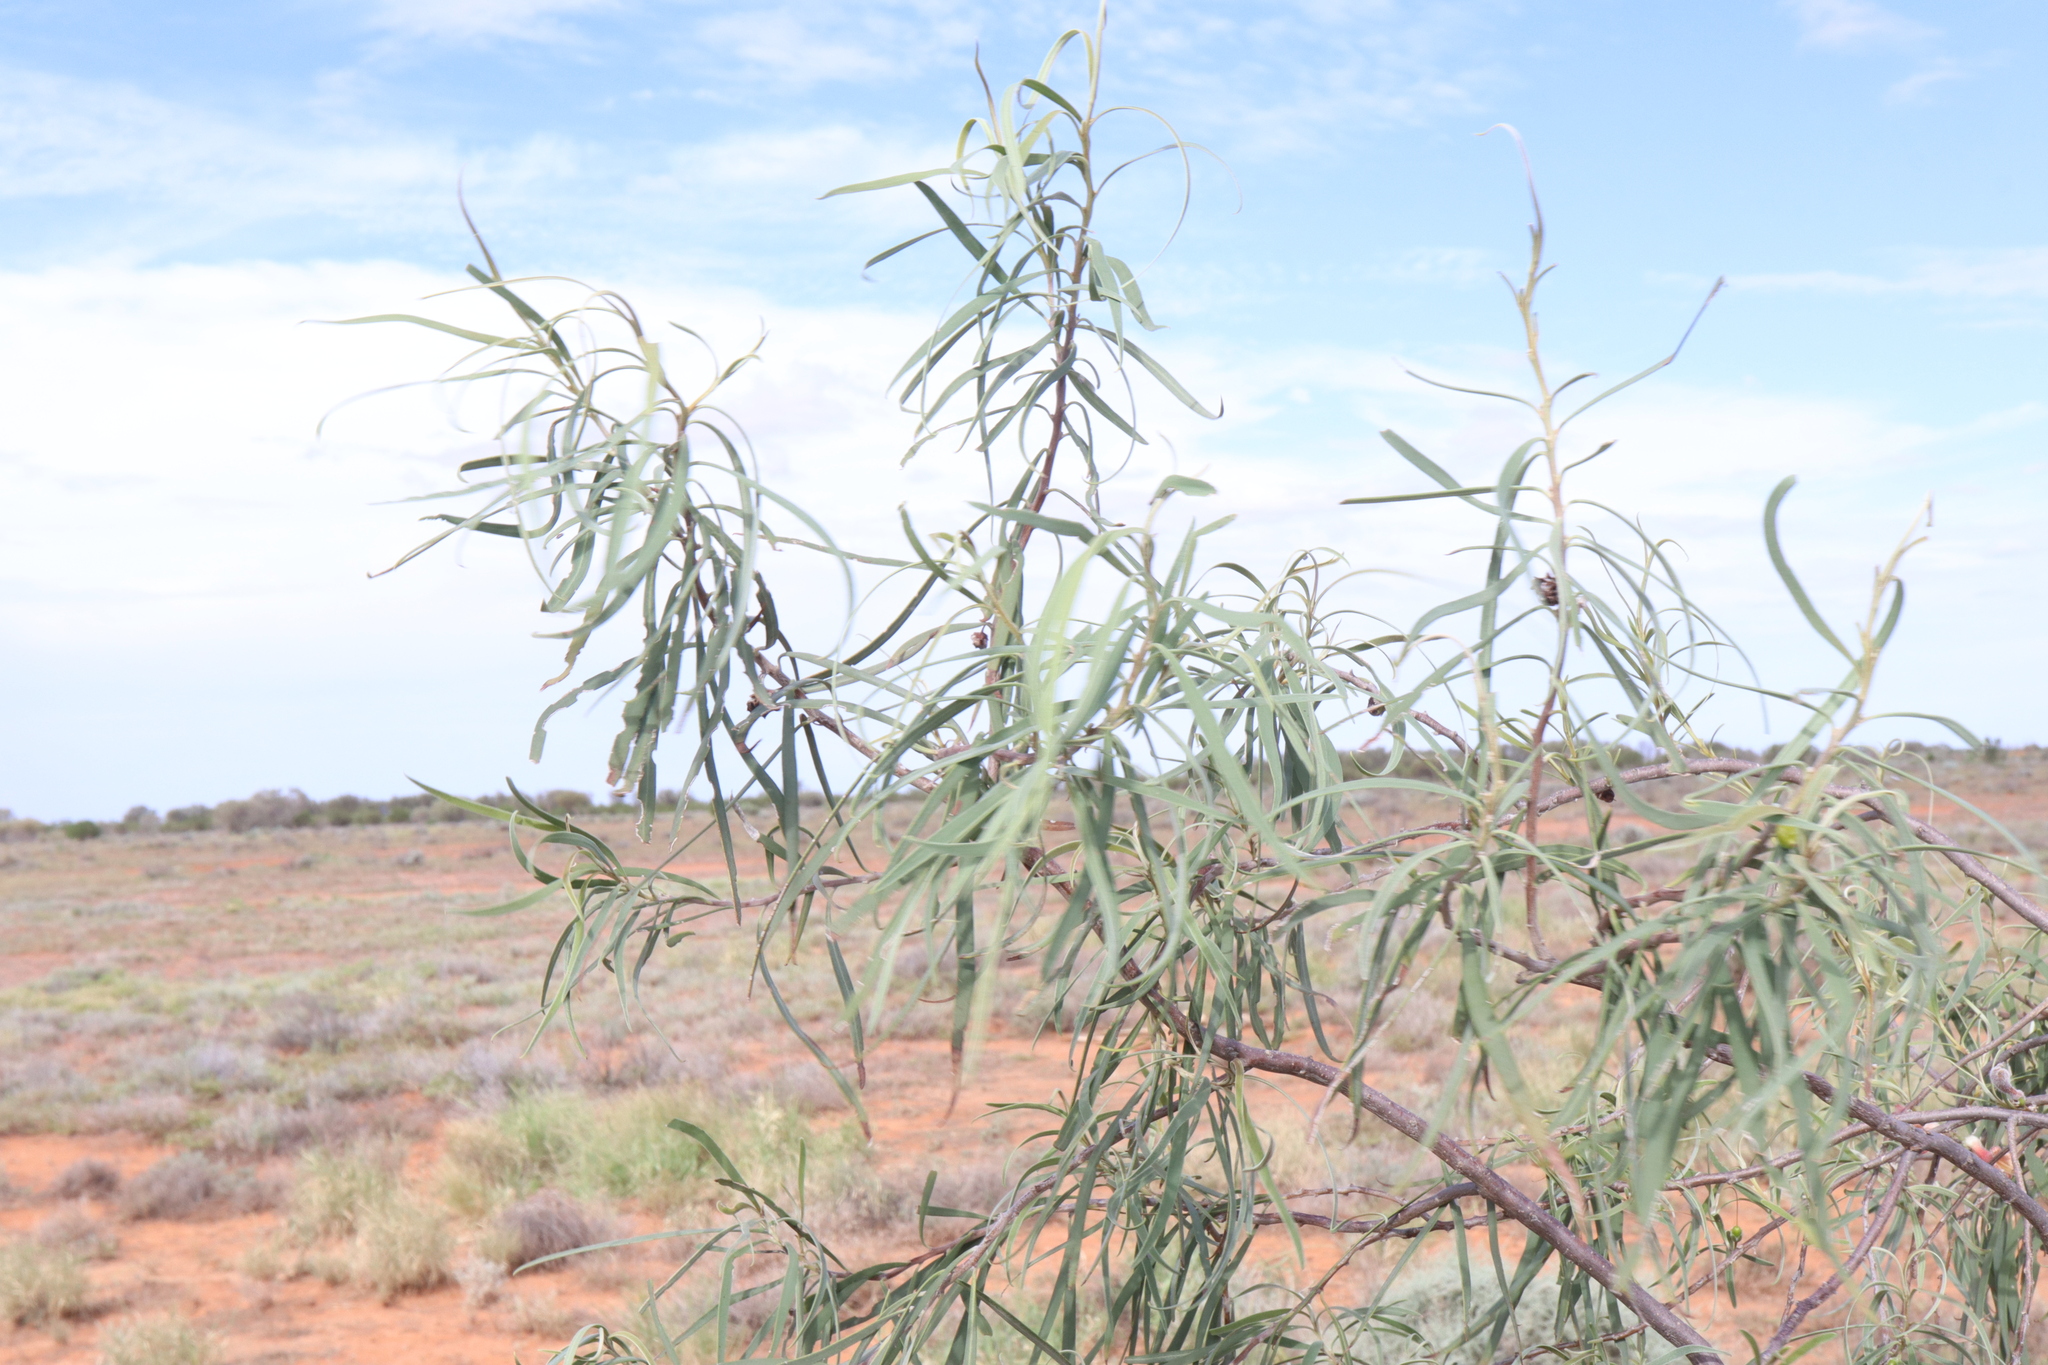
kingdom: Plantae
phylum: Tracheophyta
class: Magnoliopsida
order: Lamiales
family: Scrophulariaceae
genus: Eremophila
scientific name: Eremophila longifolia
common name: Longleaf emubush
